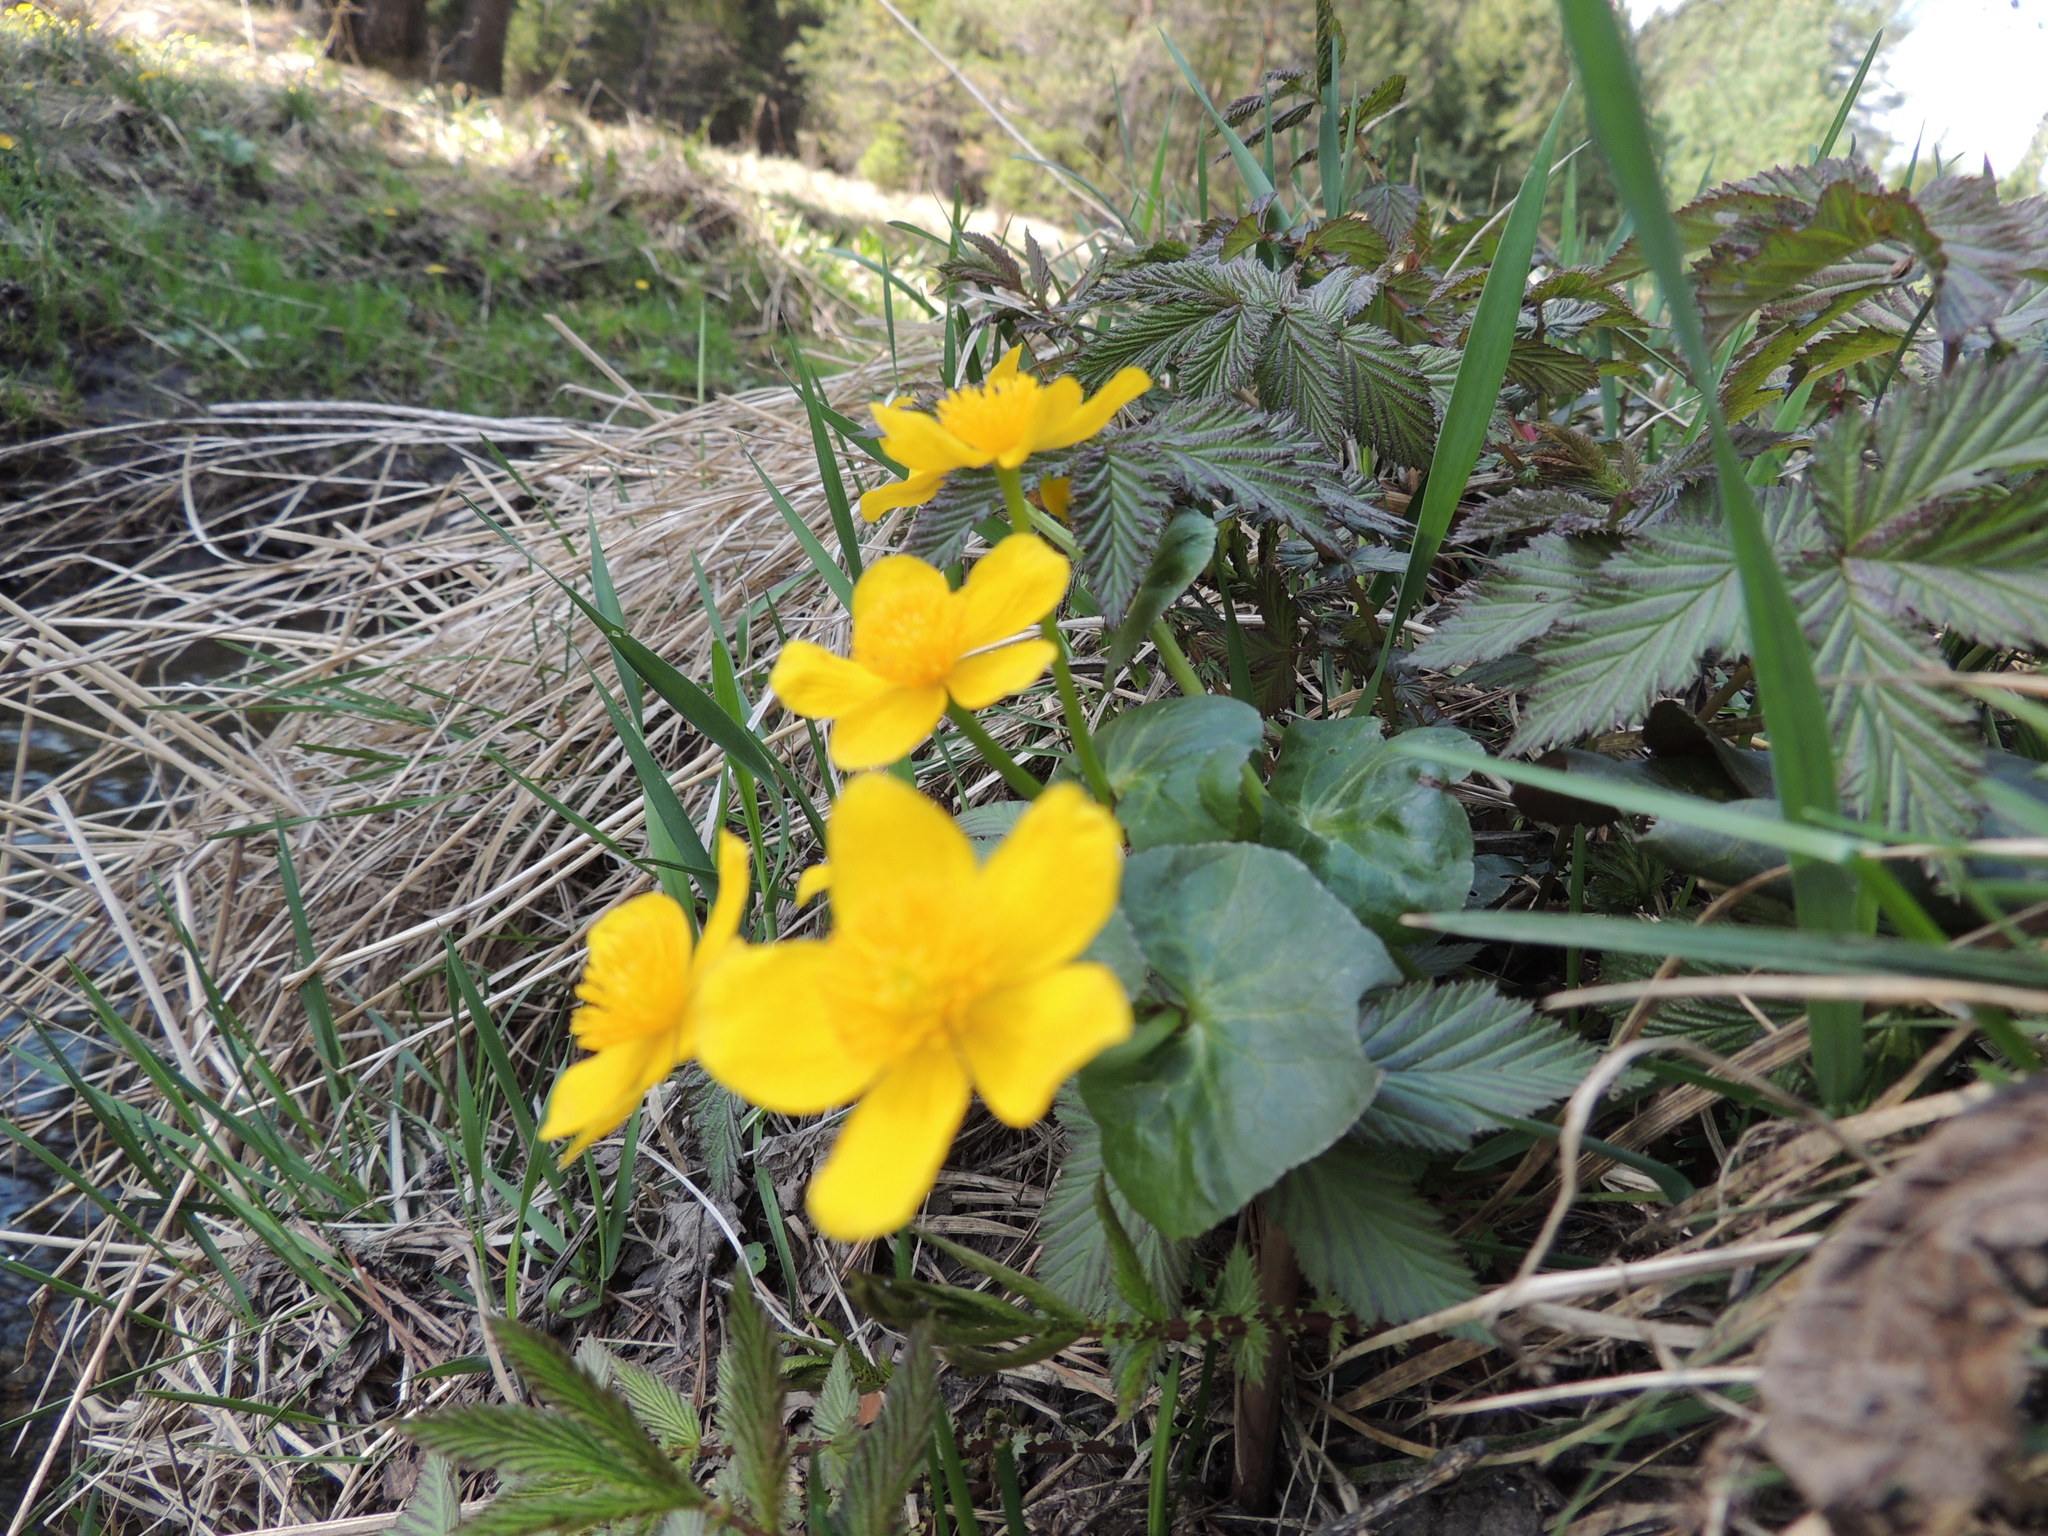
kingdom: Plantae
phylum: Tracheophyta
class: Magnoliopsida
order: Ranunculales
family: Ranunculaceae
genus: Caltha
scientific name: Caltha palustris
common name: Marsh marigold
